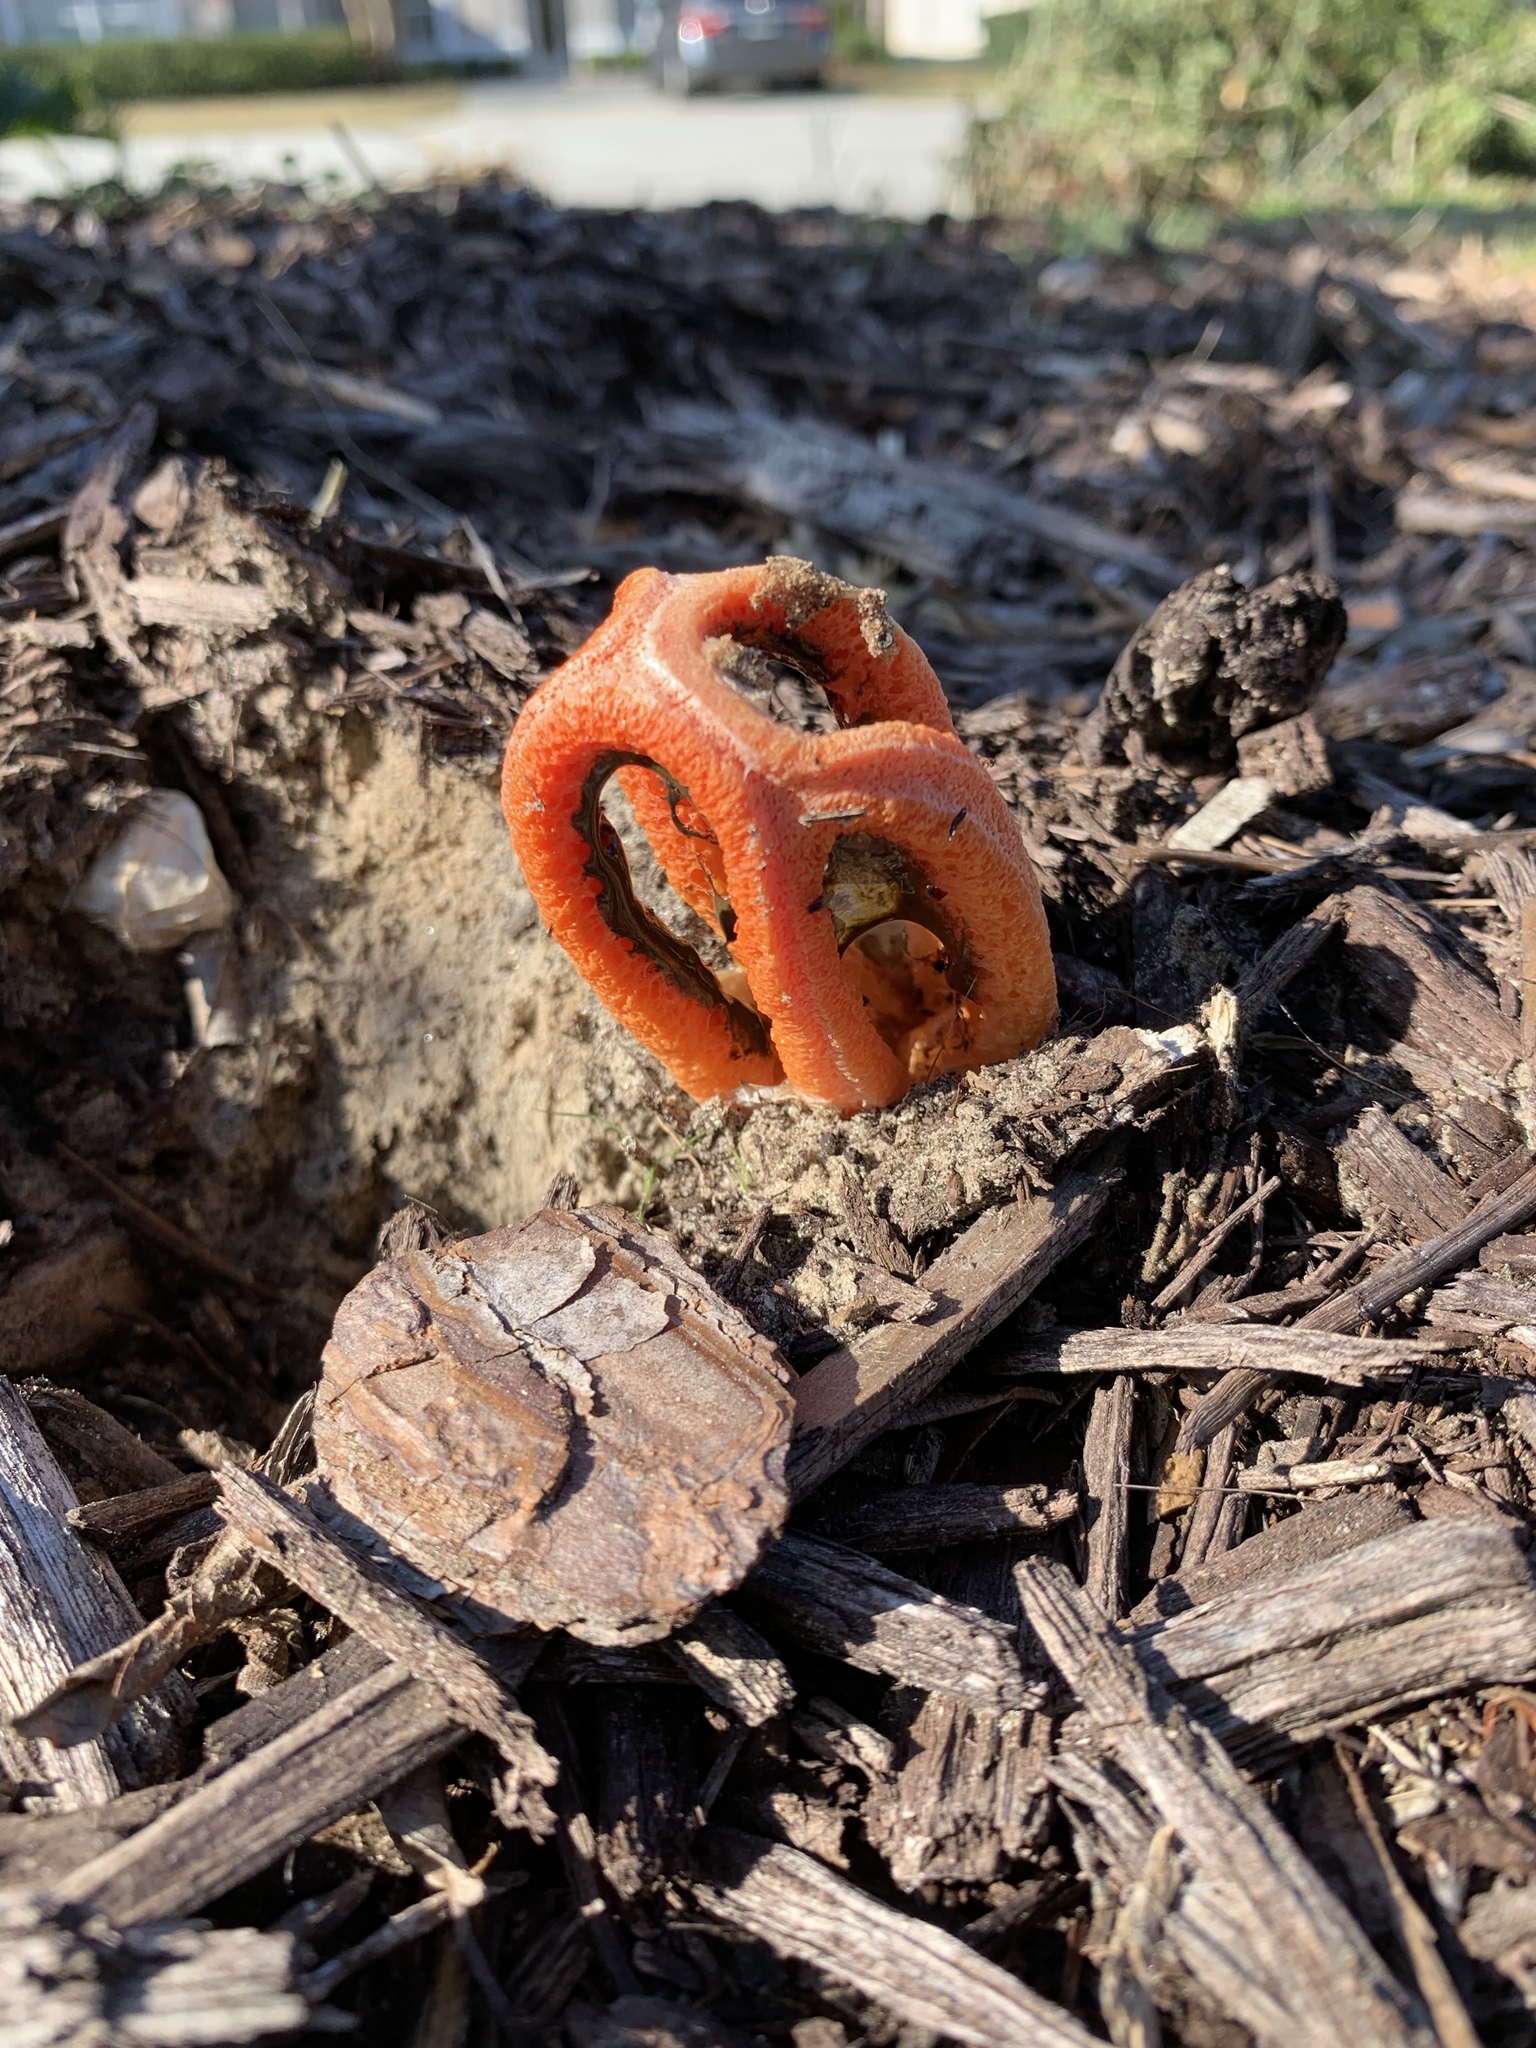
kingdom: Fungi
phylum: Basidiomycota
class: Agaricomycetes
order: Phallales
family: Phallaceae
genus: Clathrus
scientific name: Clathrus columnatus
